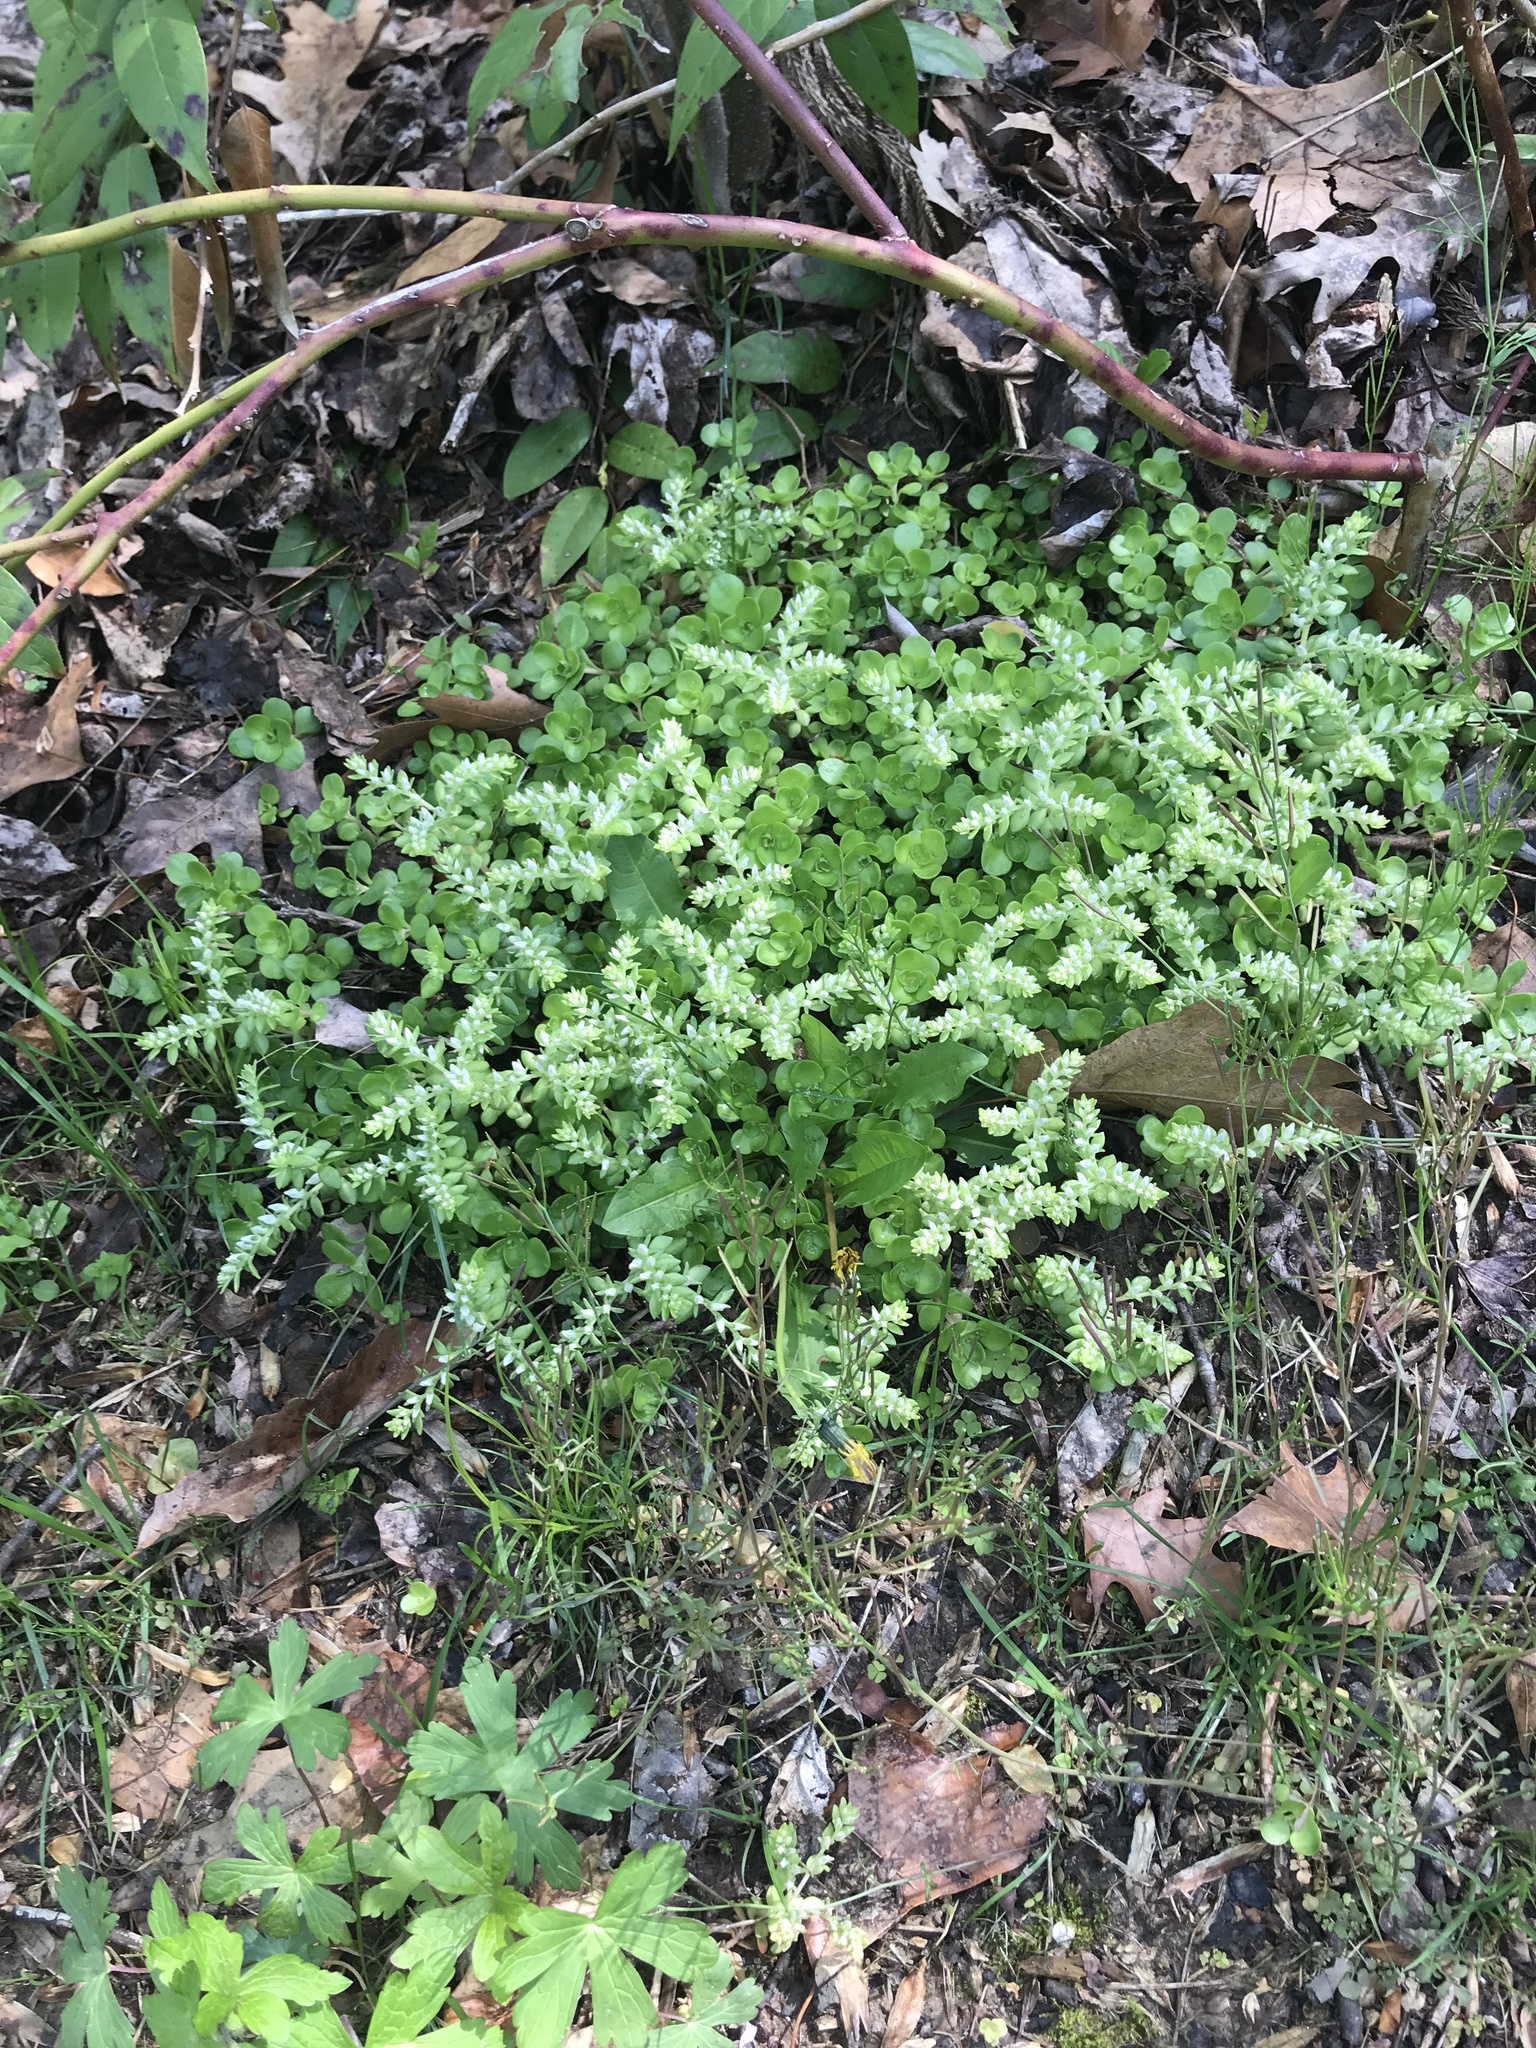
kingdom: Plantae
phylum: Tracheophyta
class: Magnoliopsida
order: Saxifragales
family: Crassulaceae
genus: Sedum
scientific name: Sedum ternatum
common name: Wild stonecrop
